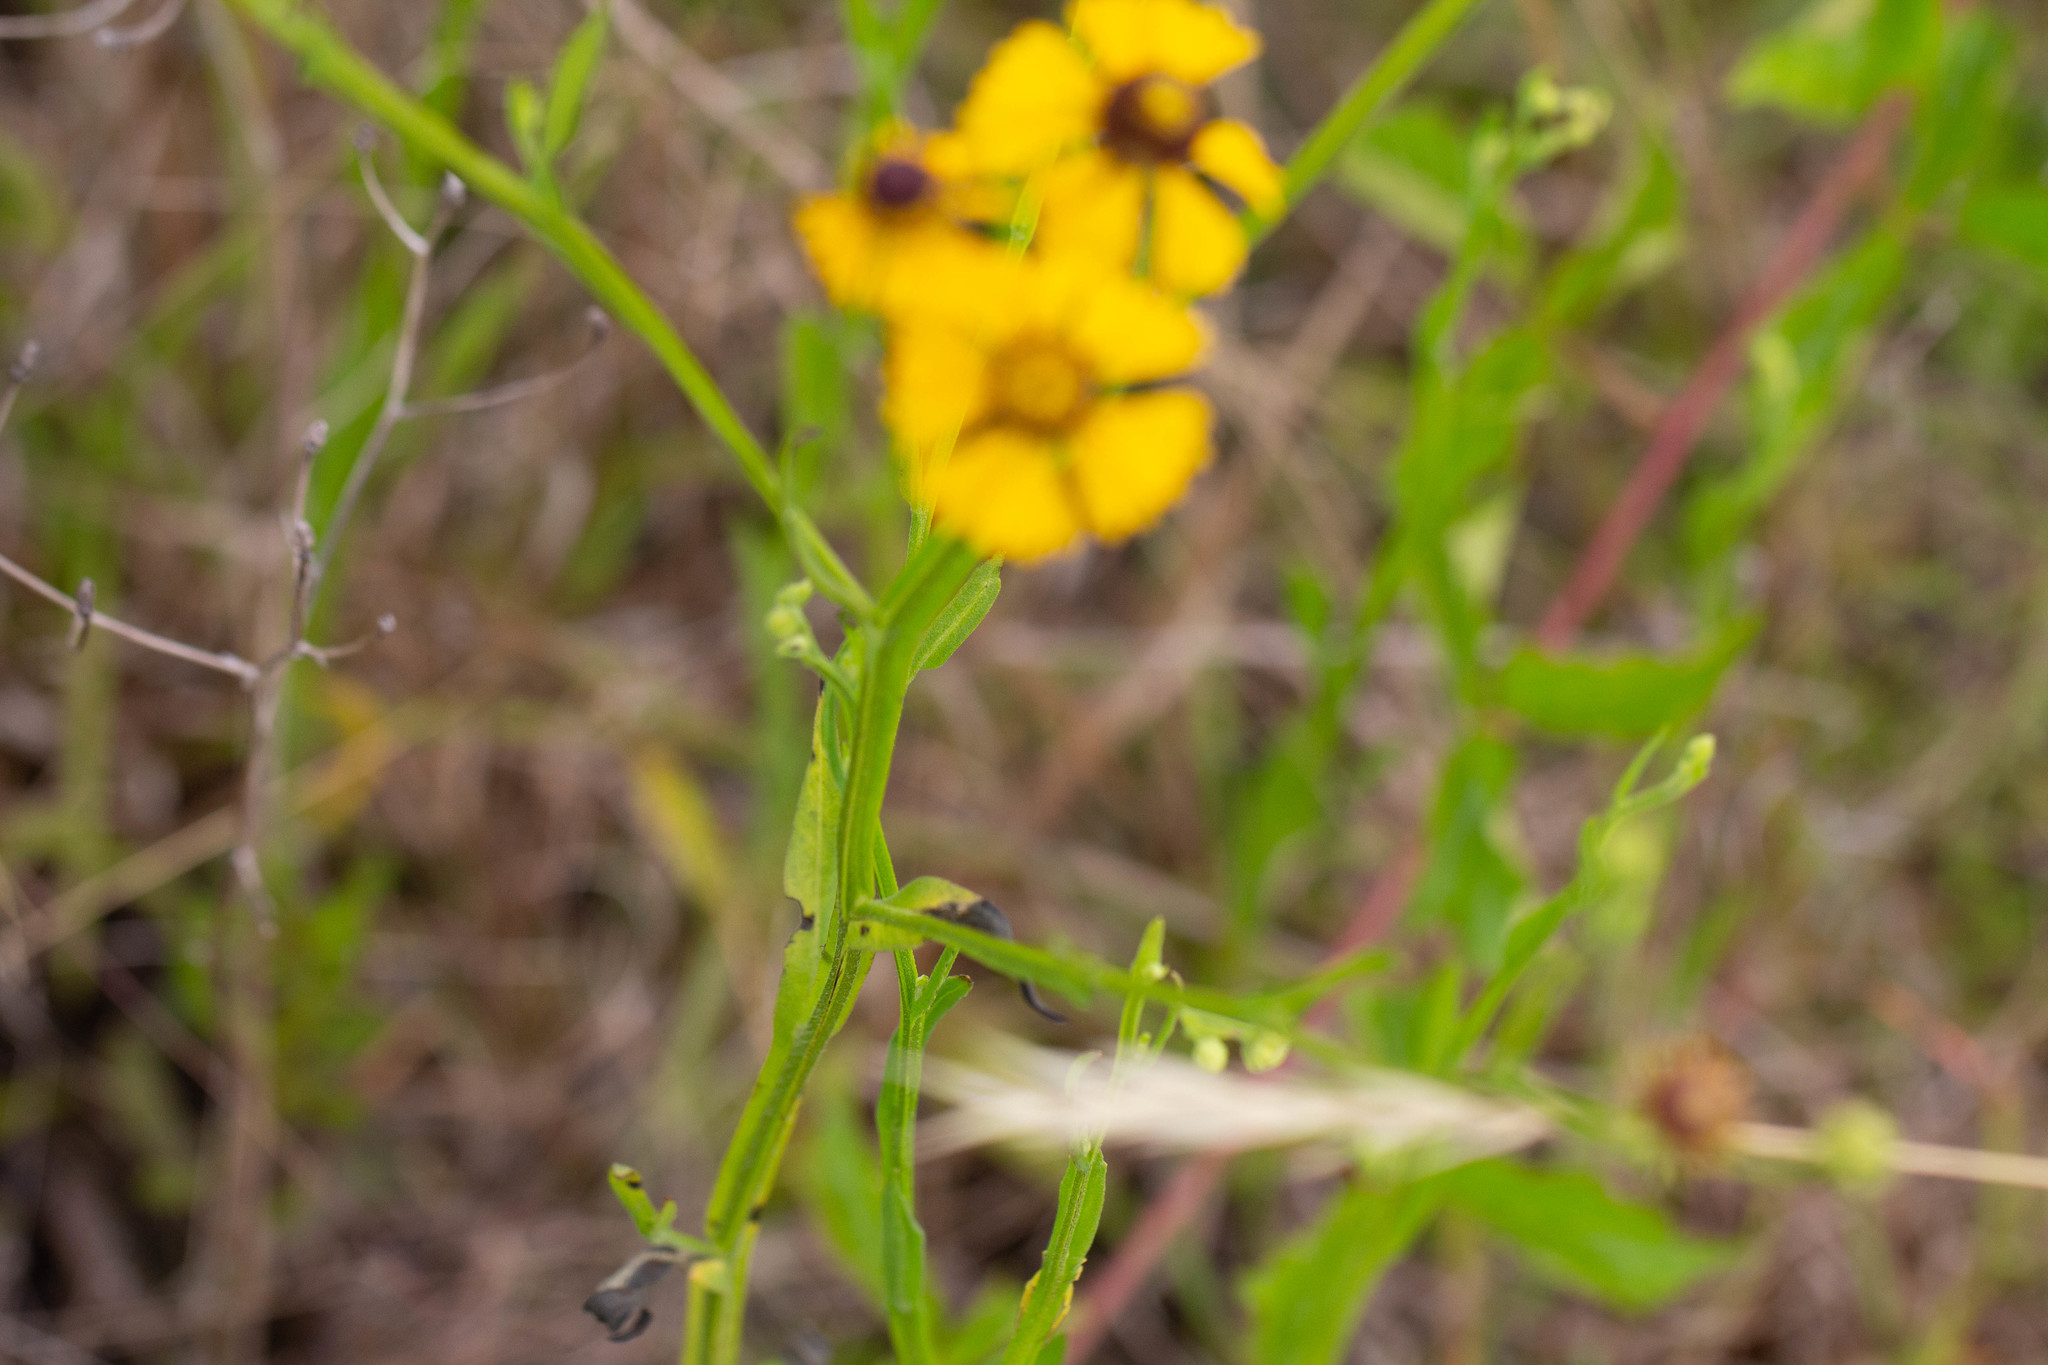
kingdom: Plantae
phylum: Tracheophyta
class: Magnoliopsida
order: Asterales
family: Asteraceae
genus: Helenium
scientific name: Helenium flexuosum
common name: Naked-flowered sneezeweed
